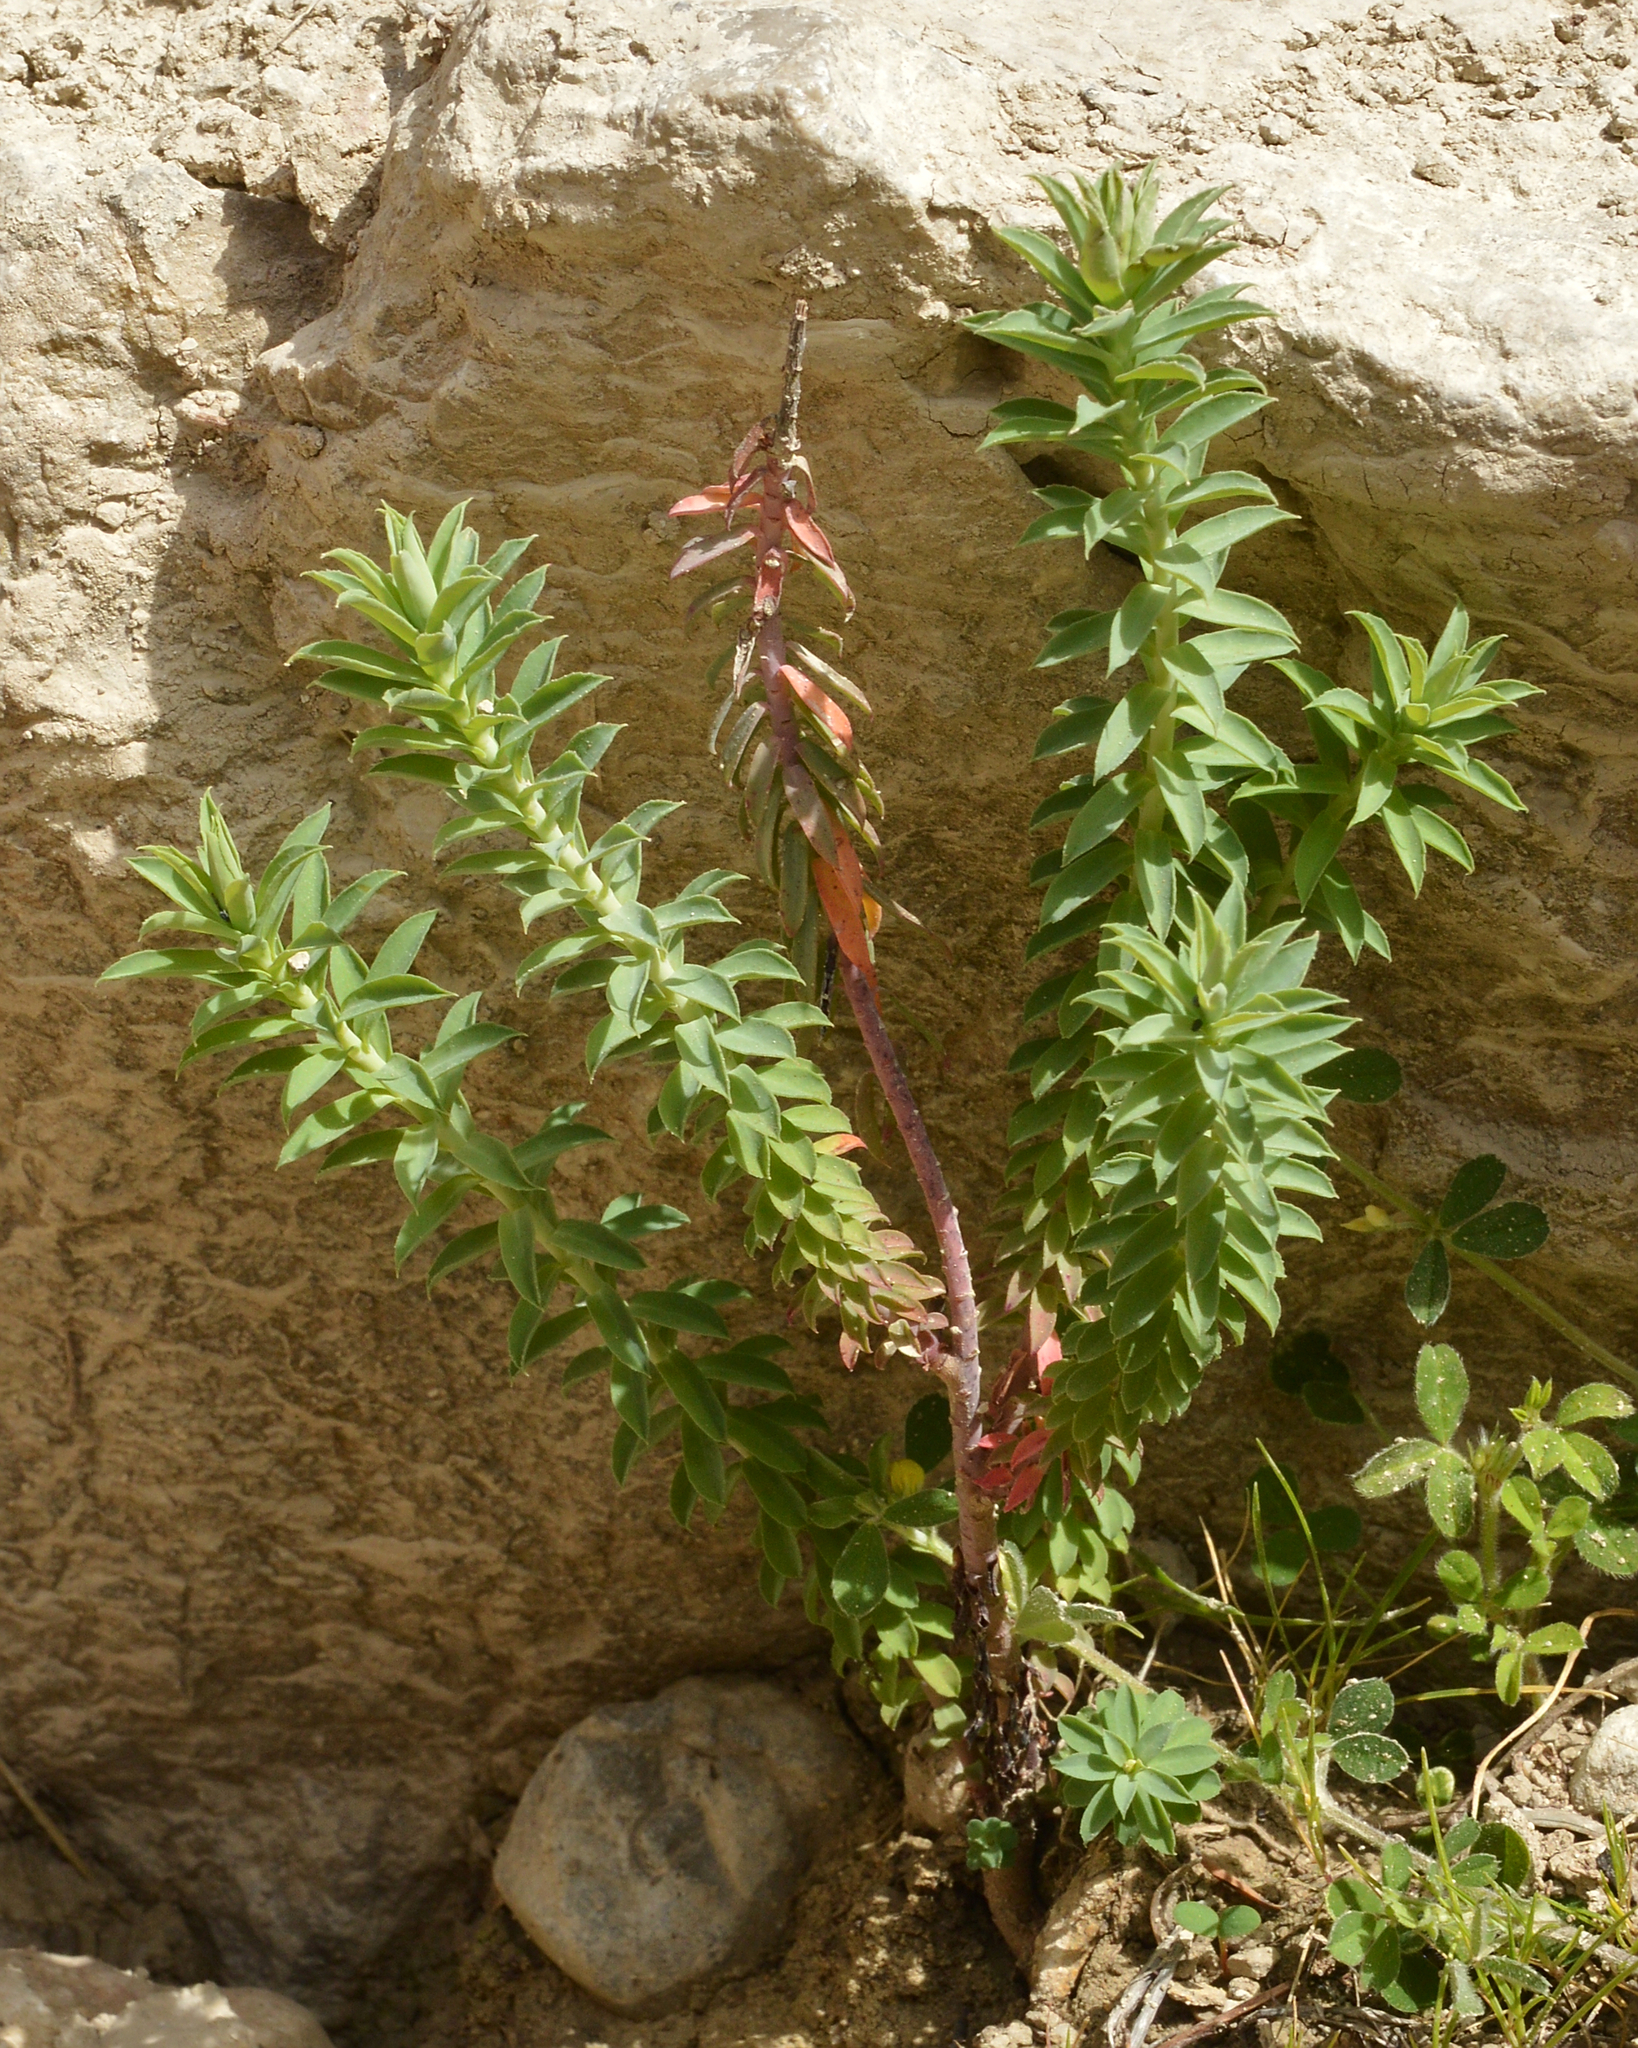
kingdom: Plantae
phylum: Tracheophyta
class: Magnoliopsida
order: Malpighiales
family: Euphorbiaceae
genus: Euphorbia
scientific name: Euphorbia pithyusa
